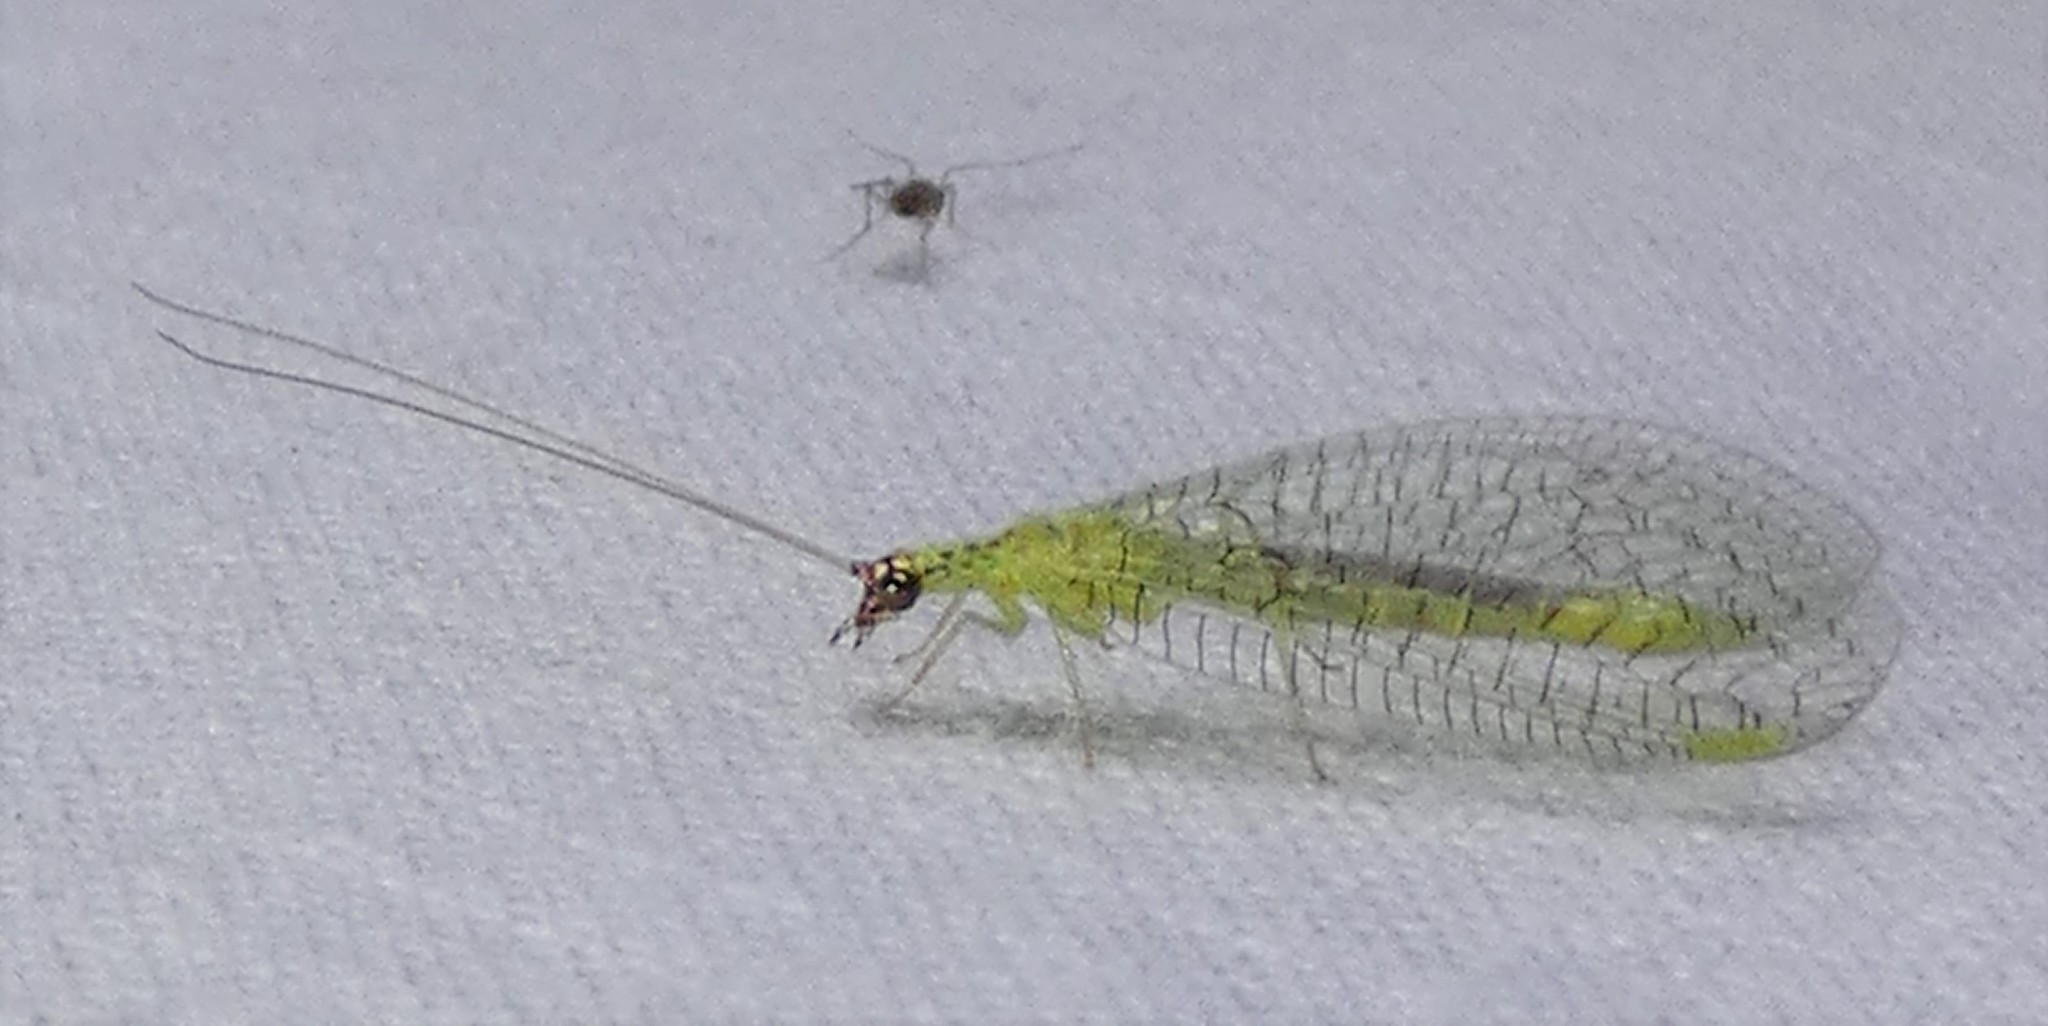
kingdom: Animalia
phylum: Arthropoda
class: Insecta
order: Neuroptera
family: Chrysopidae
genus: Chrysopa
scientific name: Chrysopa oculata
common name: Golden-eyed lacewing
